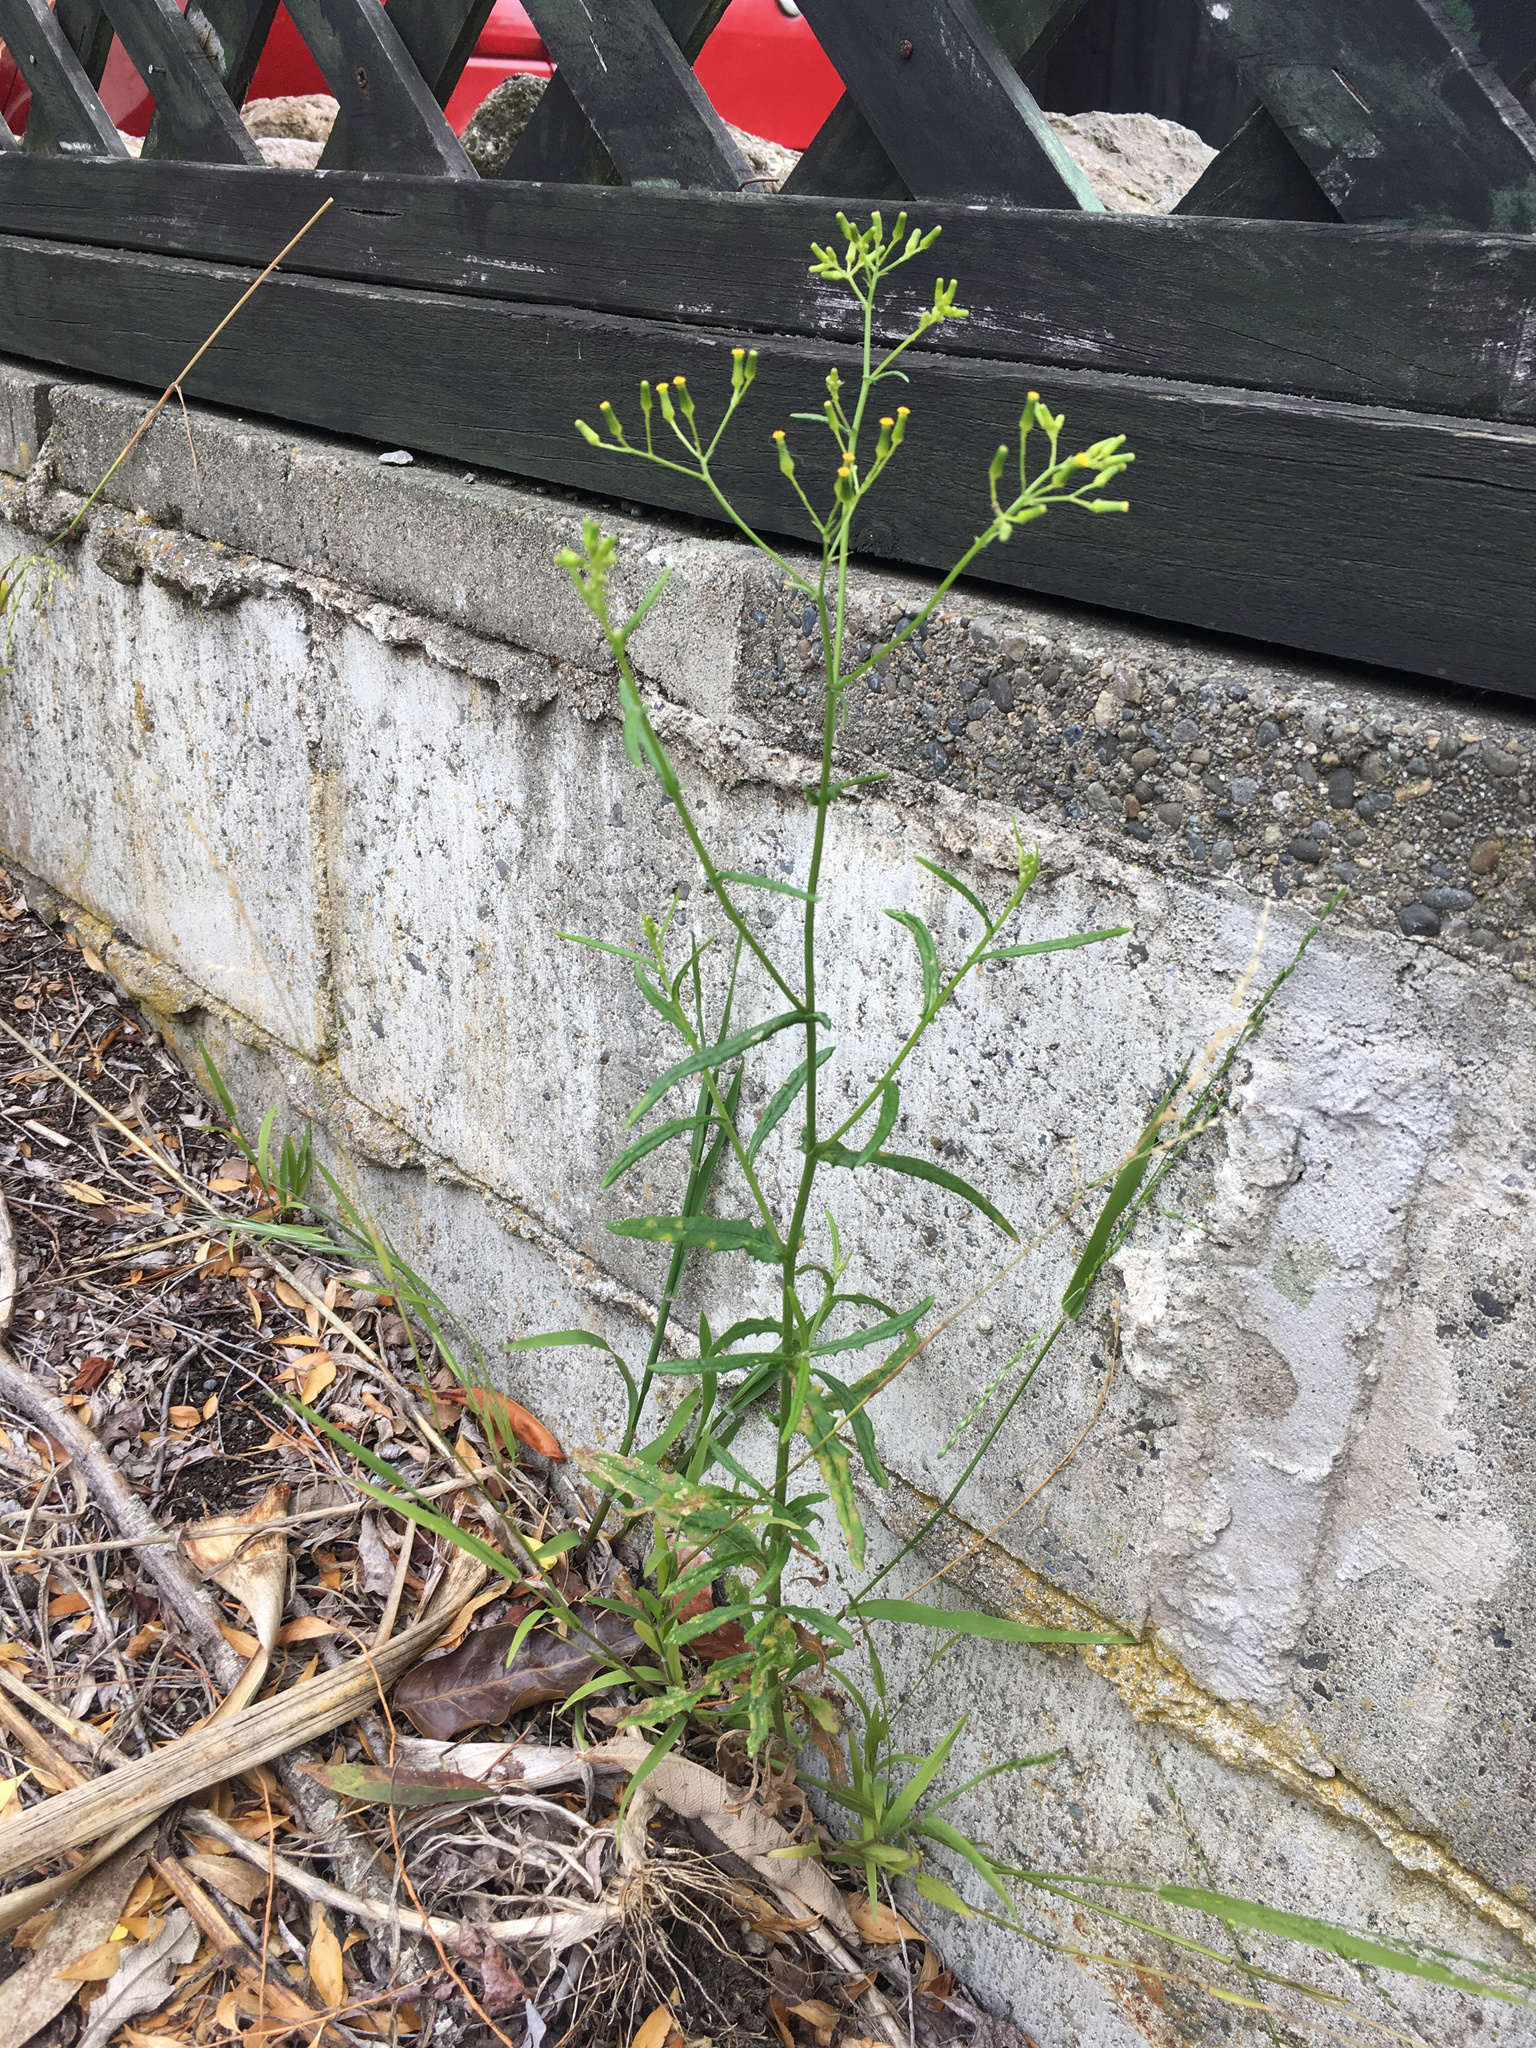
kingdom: Plantae
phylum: Tracheophyta
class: Magnoliopsida
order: Asterales
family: Asteraceae
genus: Senecio
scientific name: Senecio hispidulus
